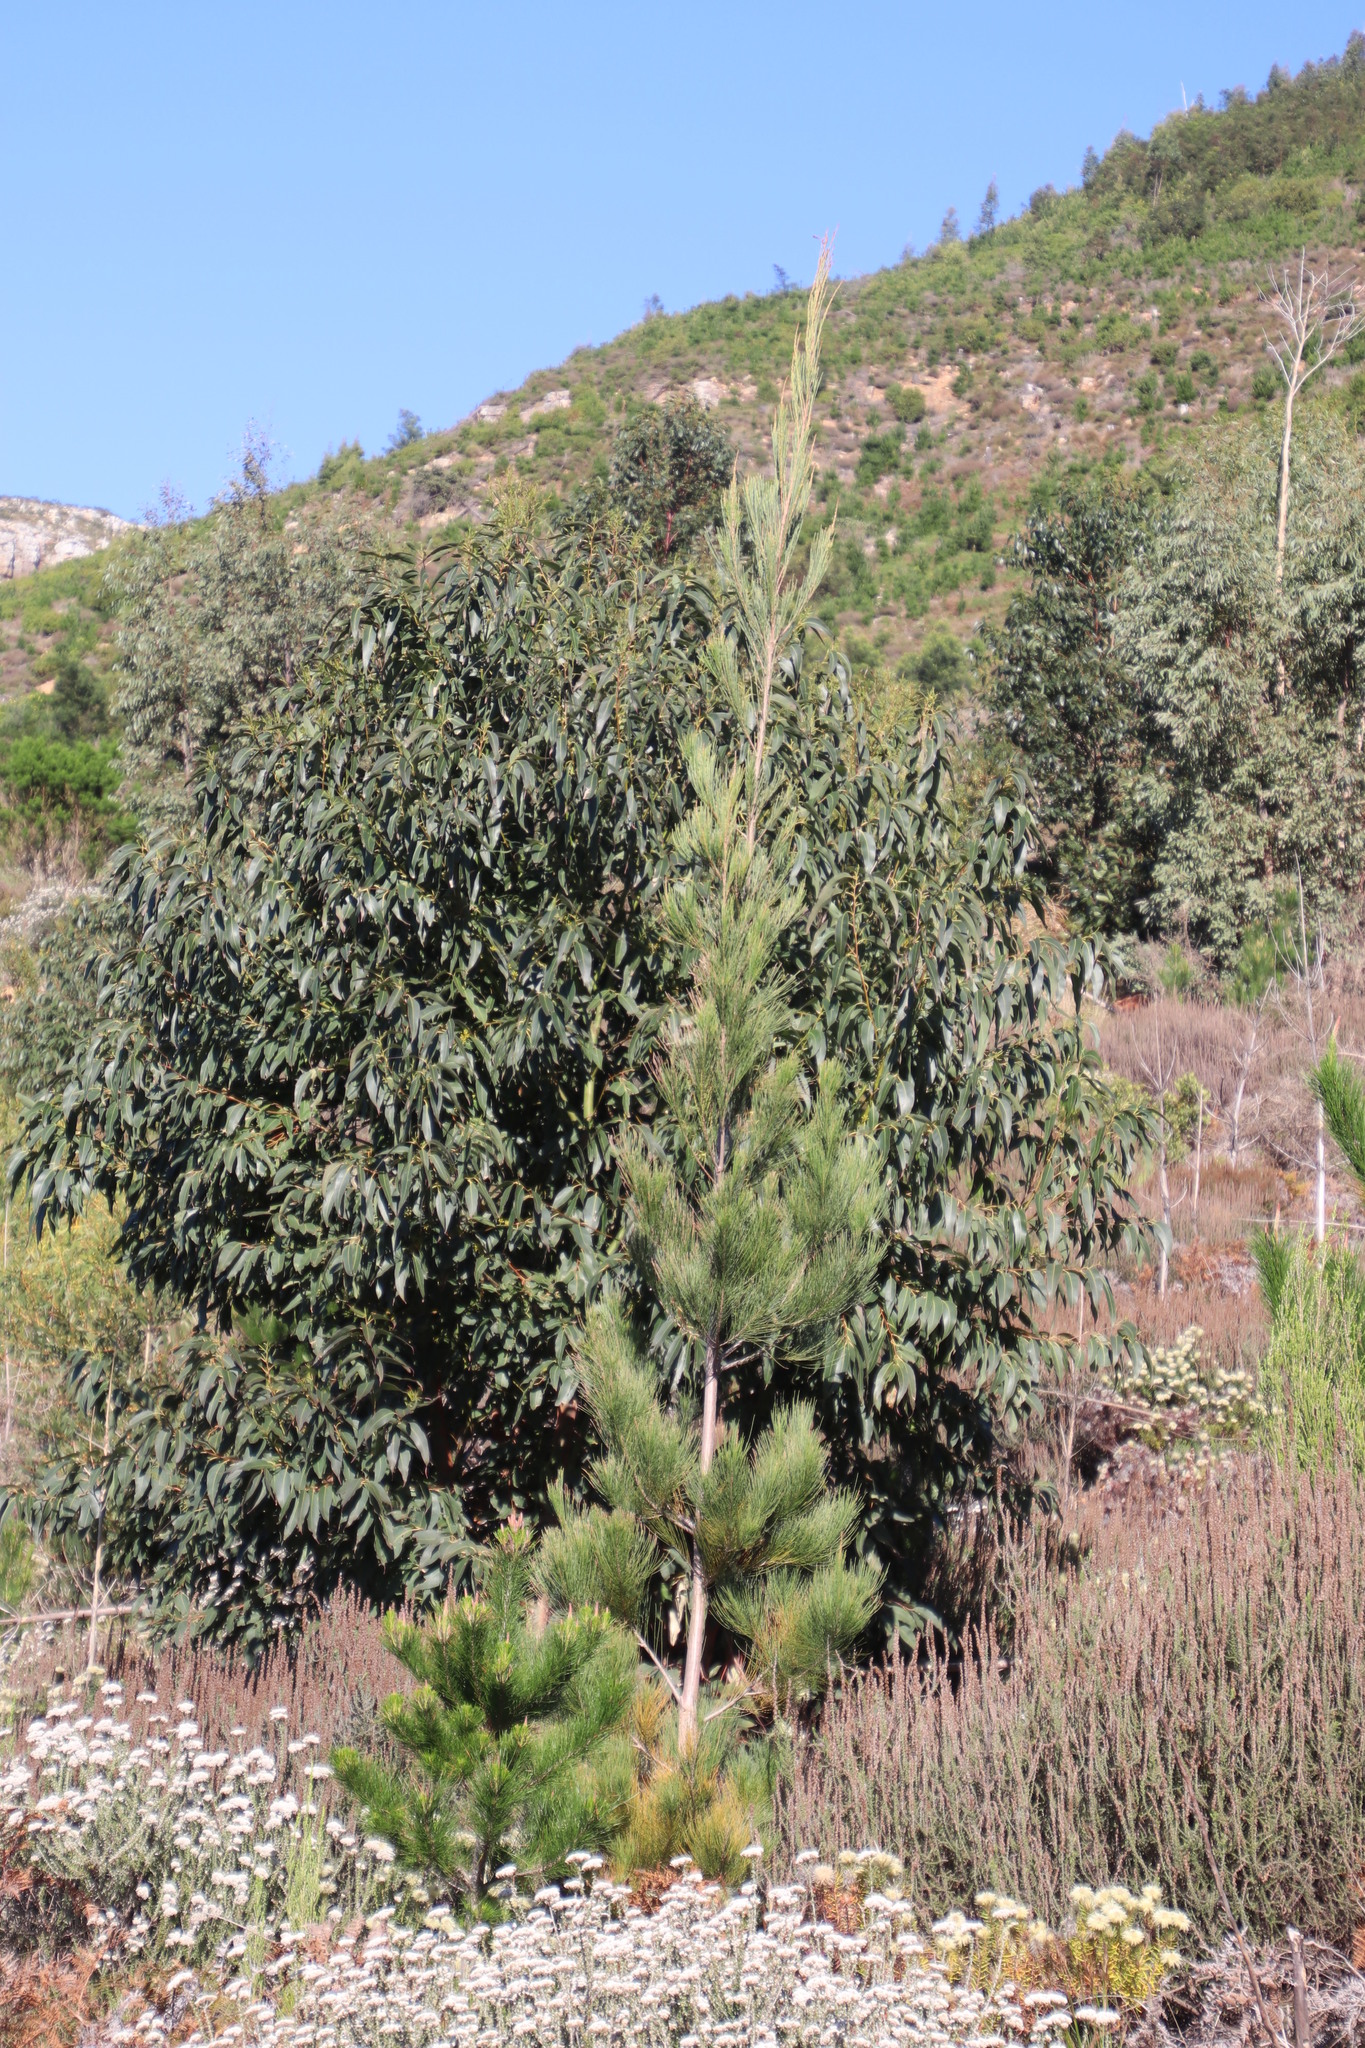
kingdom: Plantae
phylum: Tracheophyta
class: Magnoliopsida
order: Fagales
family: Casuarinaceae
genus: Allocasuarina
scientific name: Allocasuarina littoralis
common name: Black she-oak
